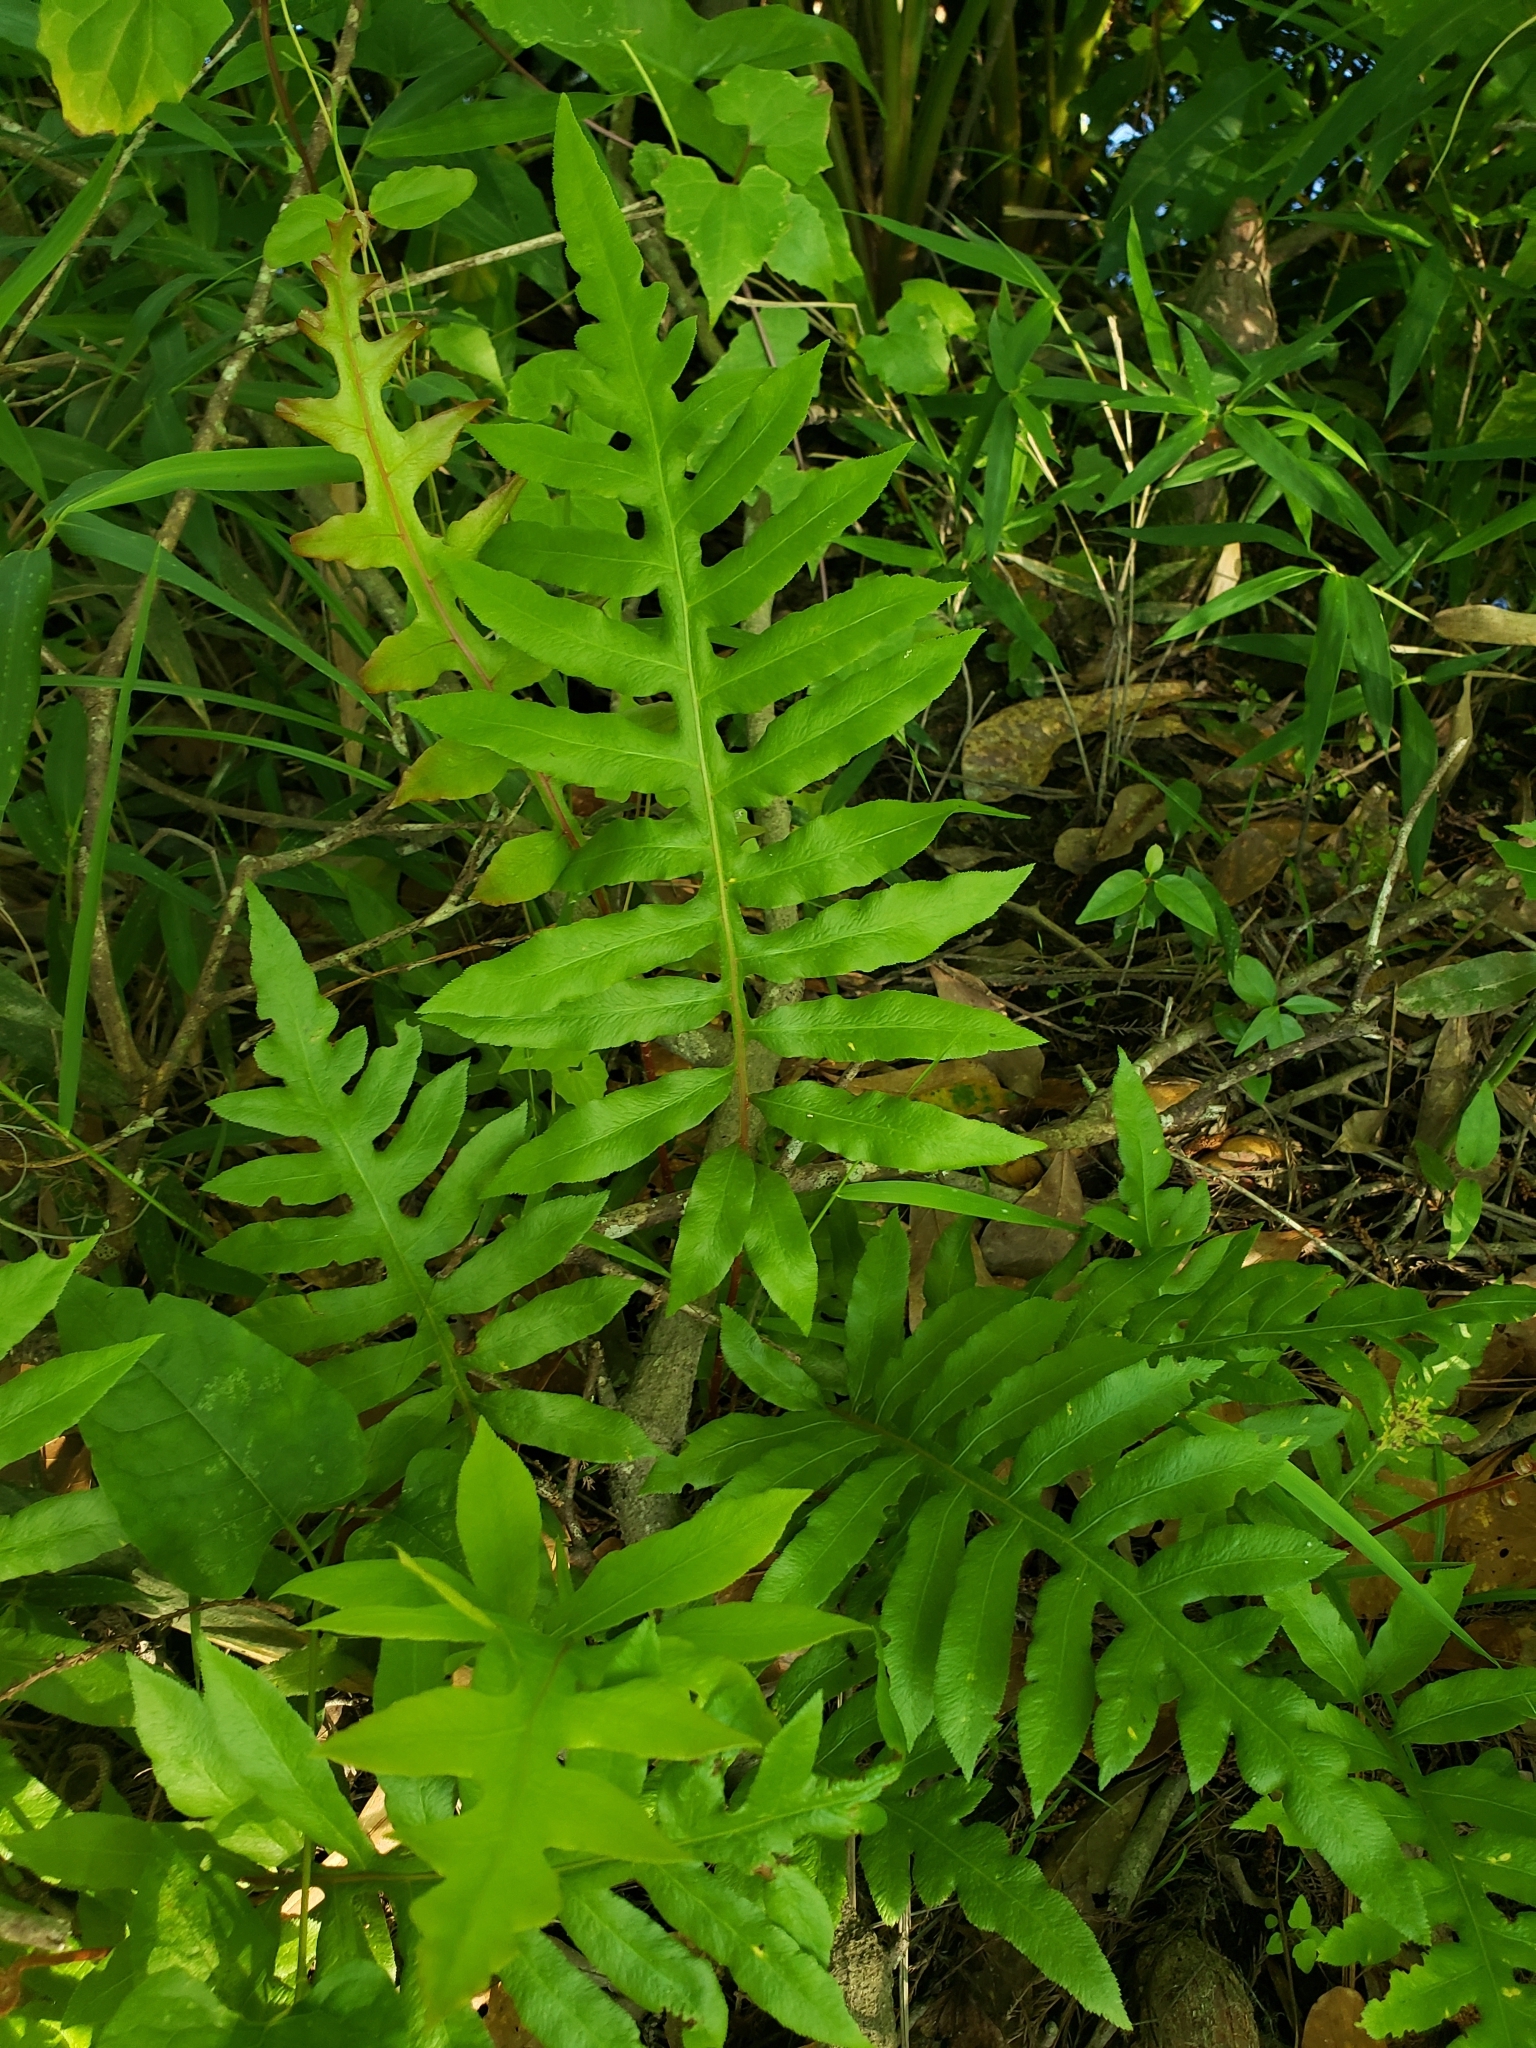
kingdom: Plantae
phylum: Tracheophyta
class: Polypodiopsida
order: Polypodiales
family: Blechnaceae
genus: Lorinseria
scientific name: Lorinseria areolata
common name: Dwarf chain fern
